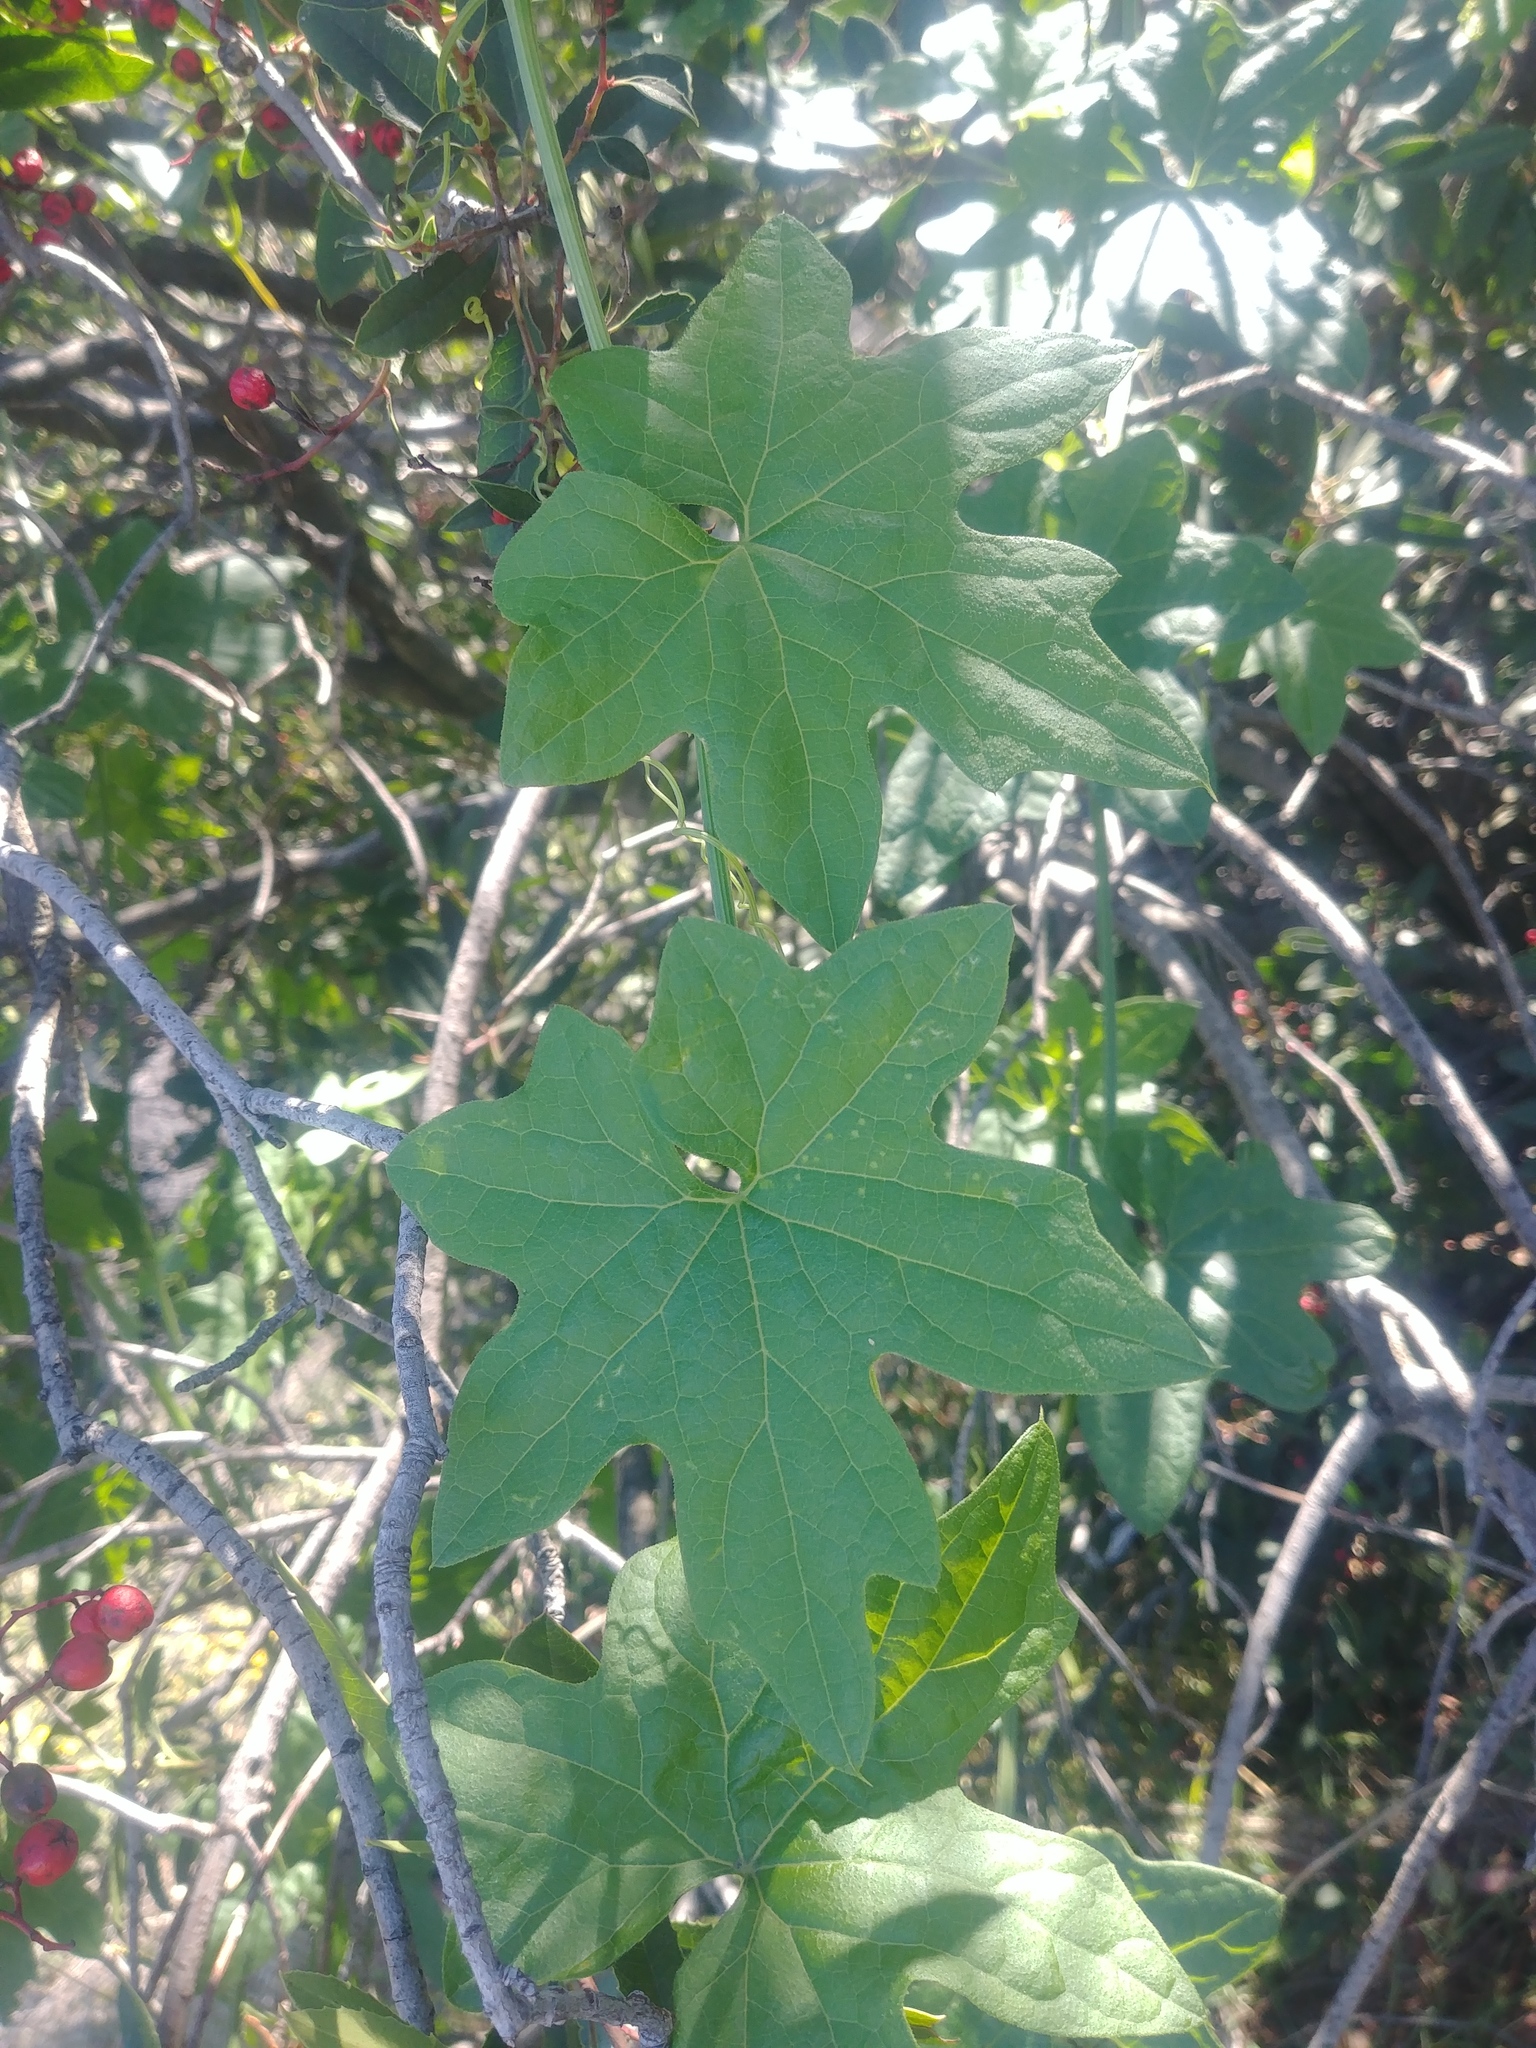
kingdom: Plantae
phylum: Tracheophyta
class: Magnoliopsida
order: Cucurbitales
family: Cucurbitaceae
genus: Marah
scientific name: Marah macrocarpa
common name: Cucamonga manroot
